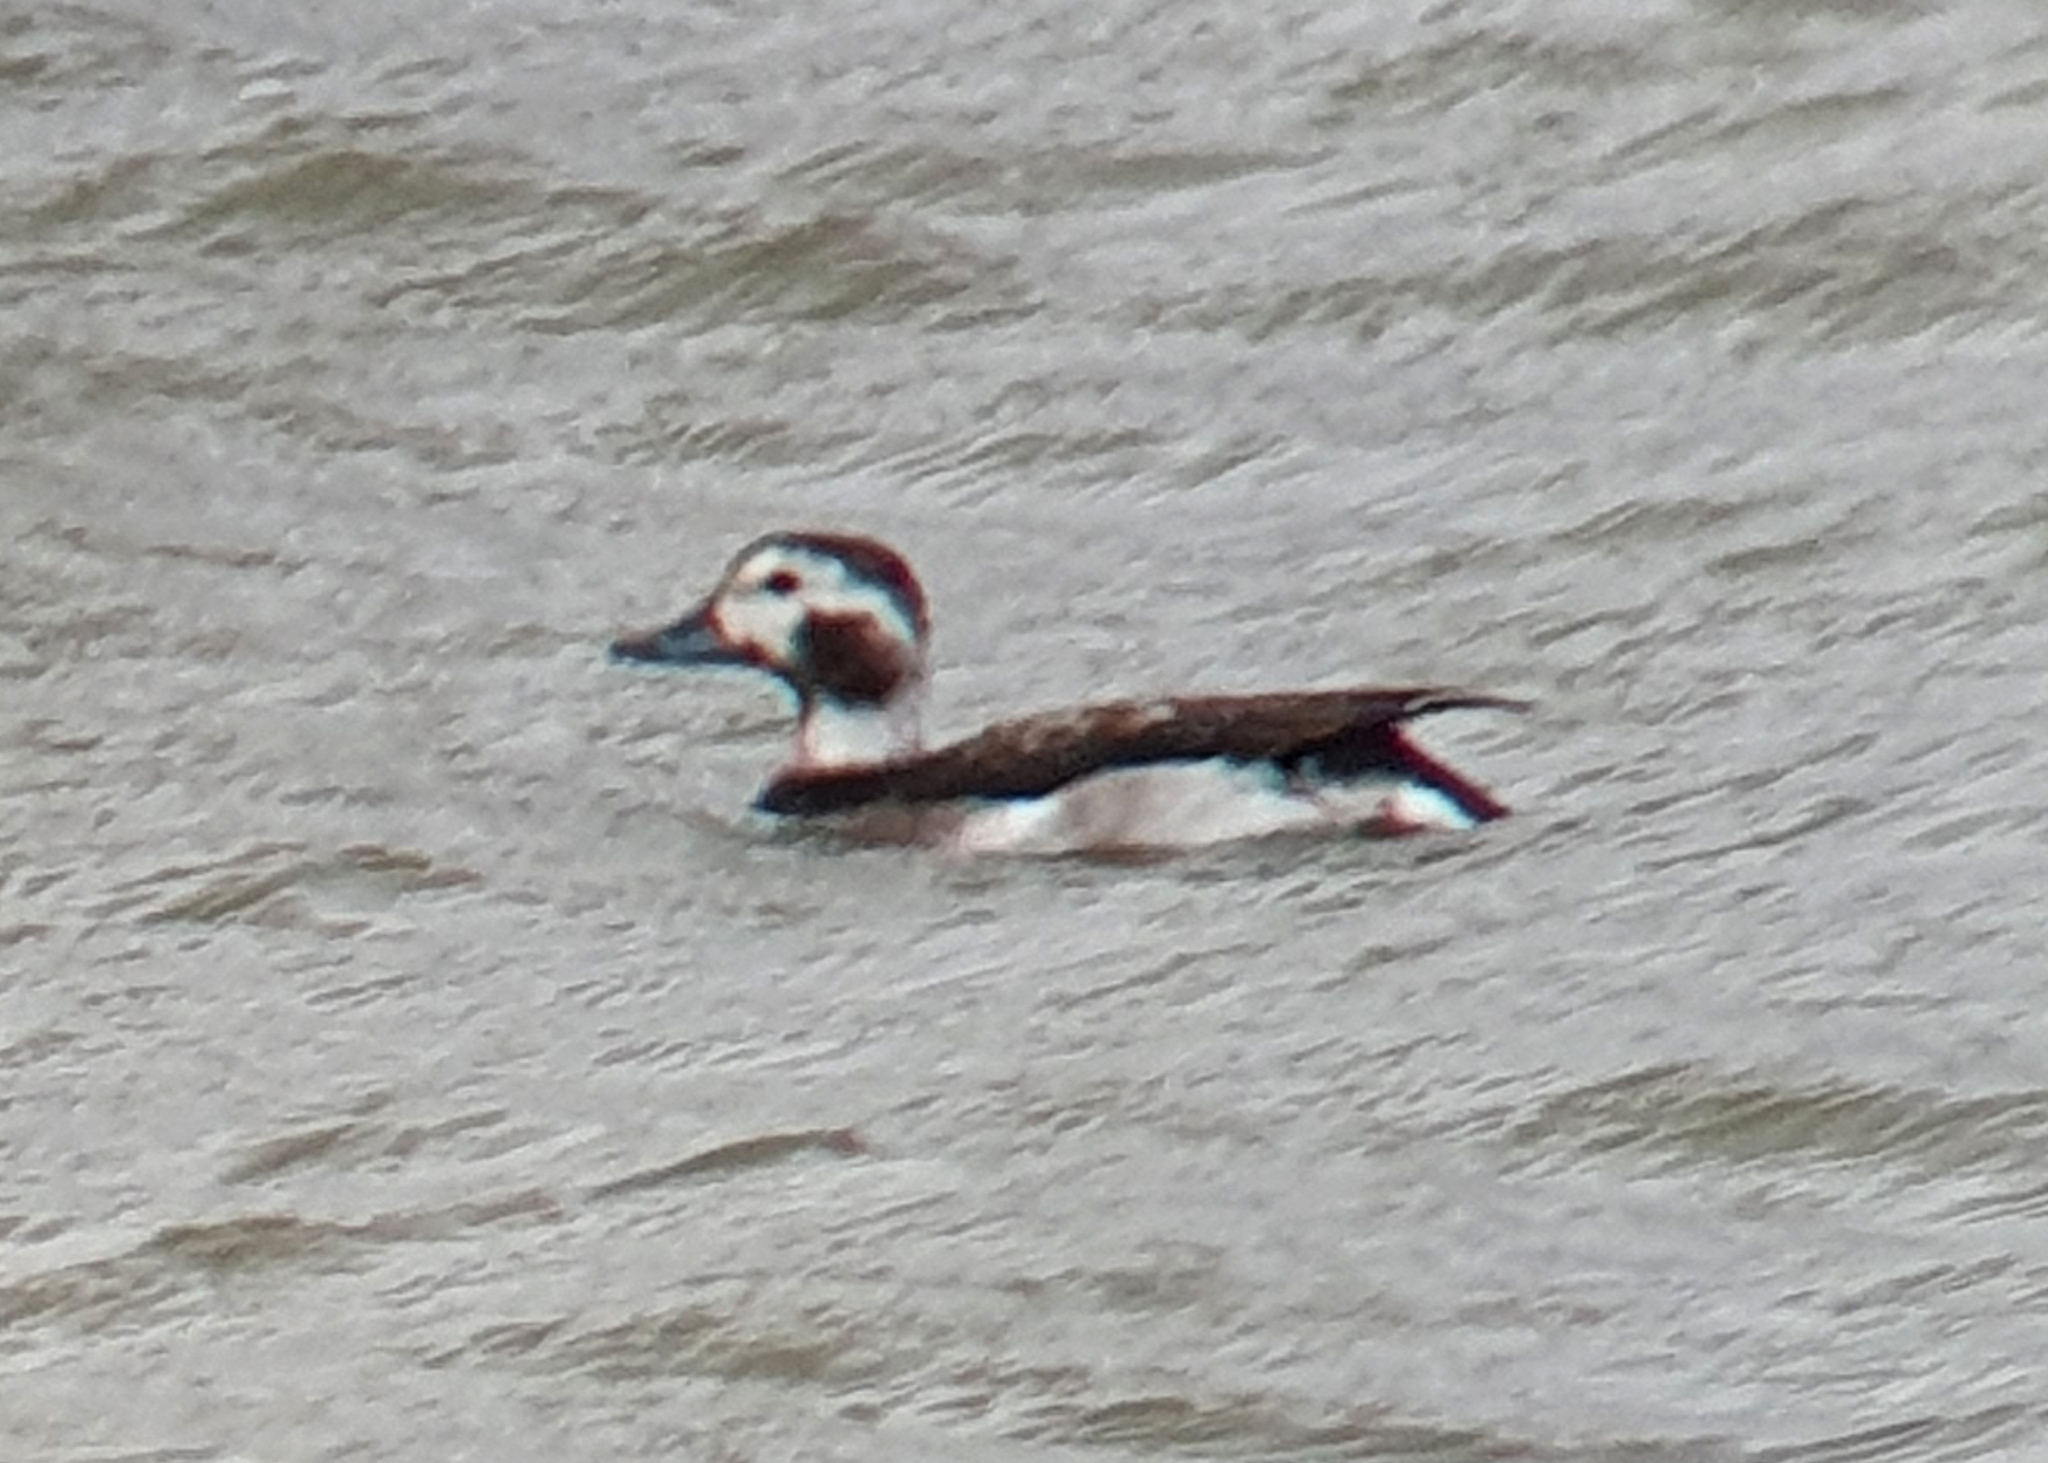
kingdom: Animalia
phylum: Chordata
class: Aves
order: Anseriformes
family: Anatidae
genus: Clangula
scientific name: Clangula hyemalis
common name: Long-tailed duck
